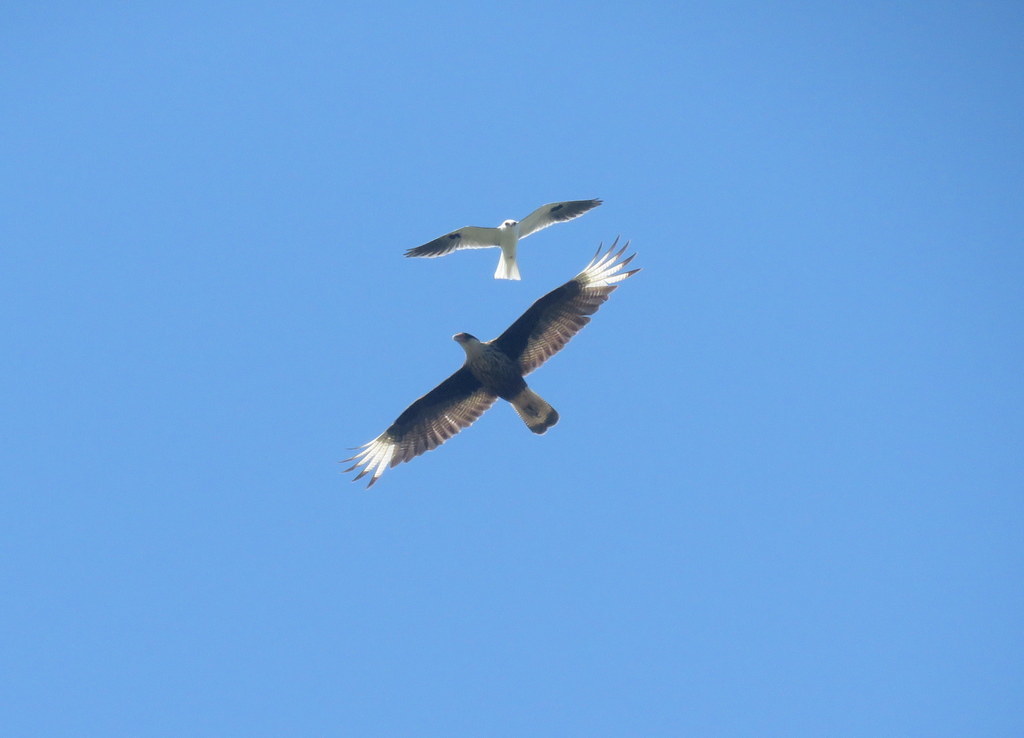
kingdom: Animalia
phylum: Chordata
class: Aves
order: Accipitriformes
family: Accipitridae
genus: Elanus
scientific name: Elanus leucurus
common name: White-tailed kite
